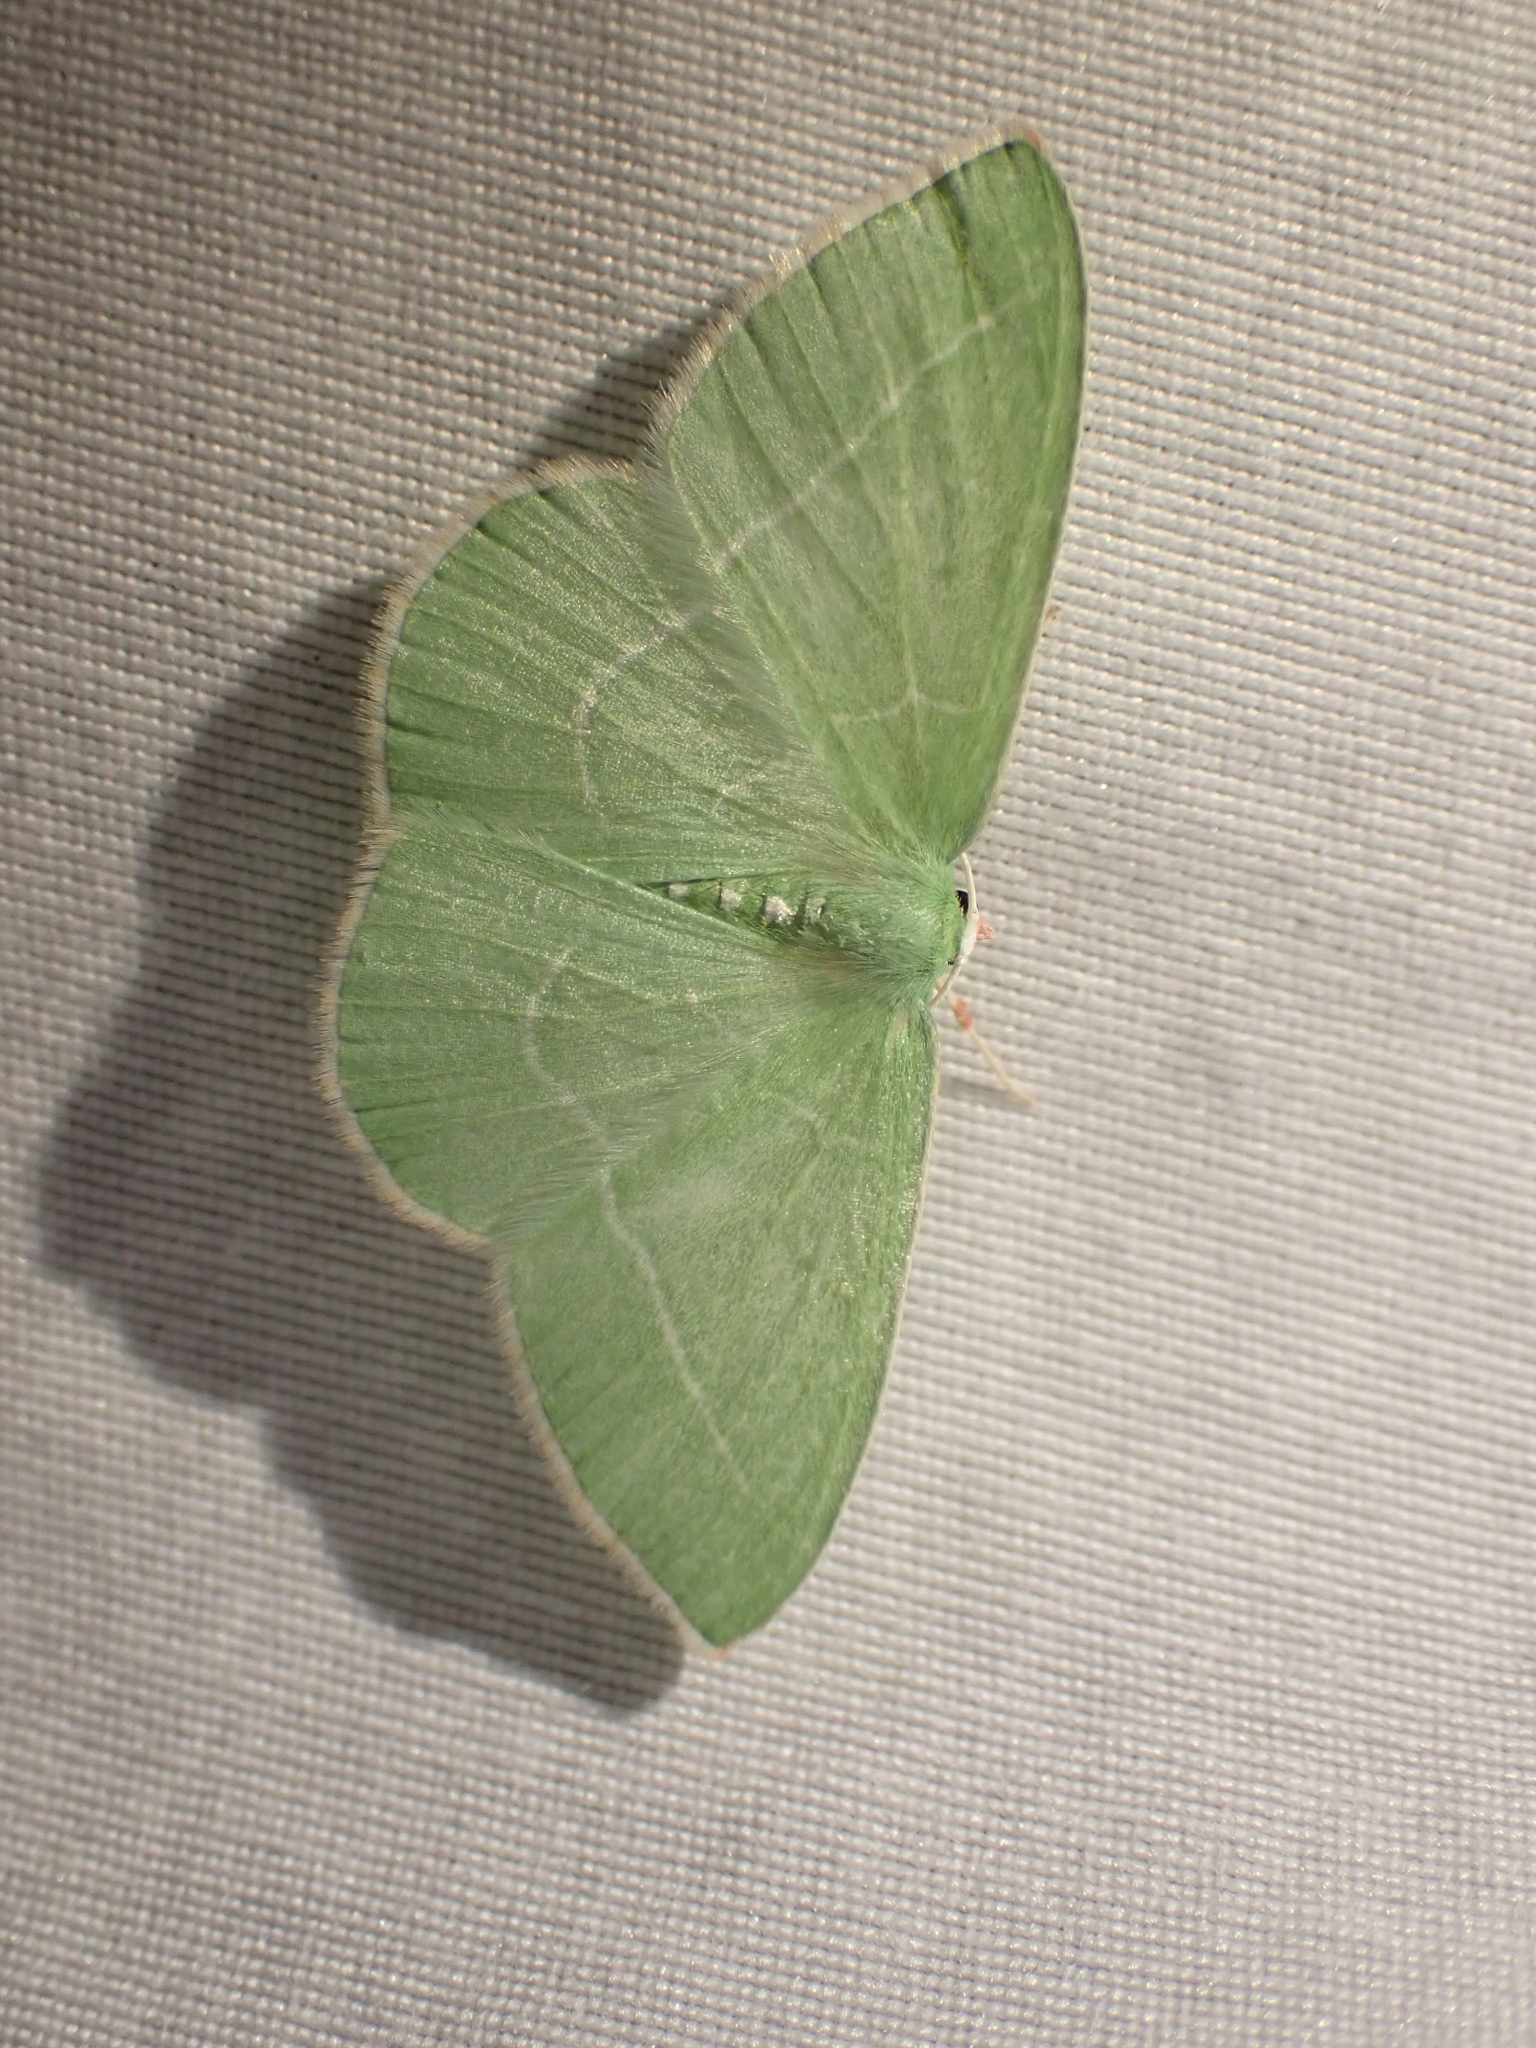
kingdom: Animalia
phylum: Arthropoda
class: Insecta
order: Lepidoptera
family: Geometridae
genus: Nemoria
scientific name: Nemoria unitaria
